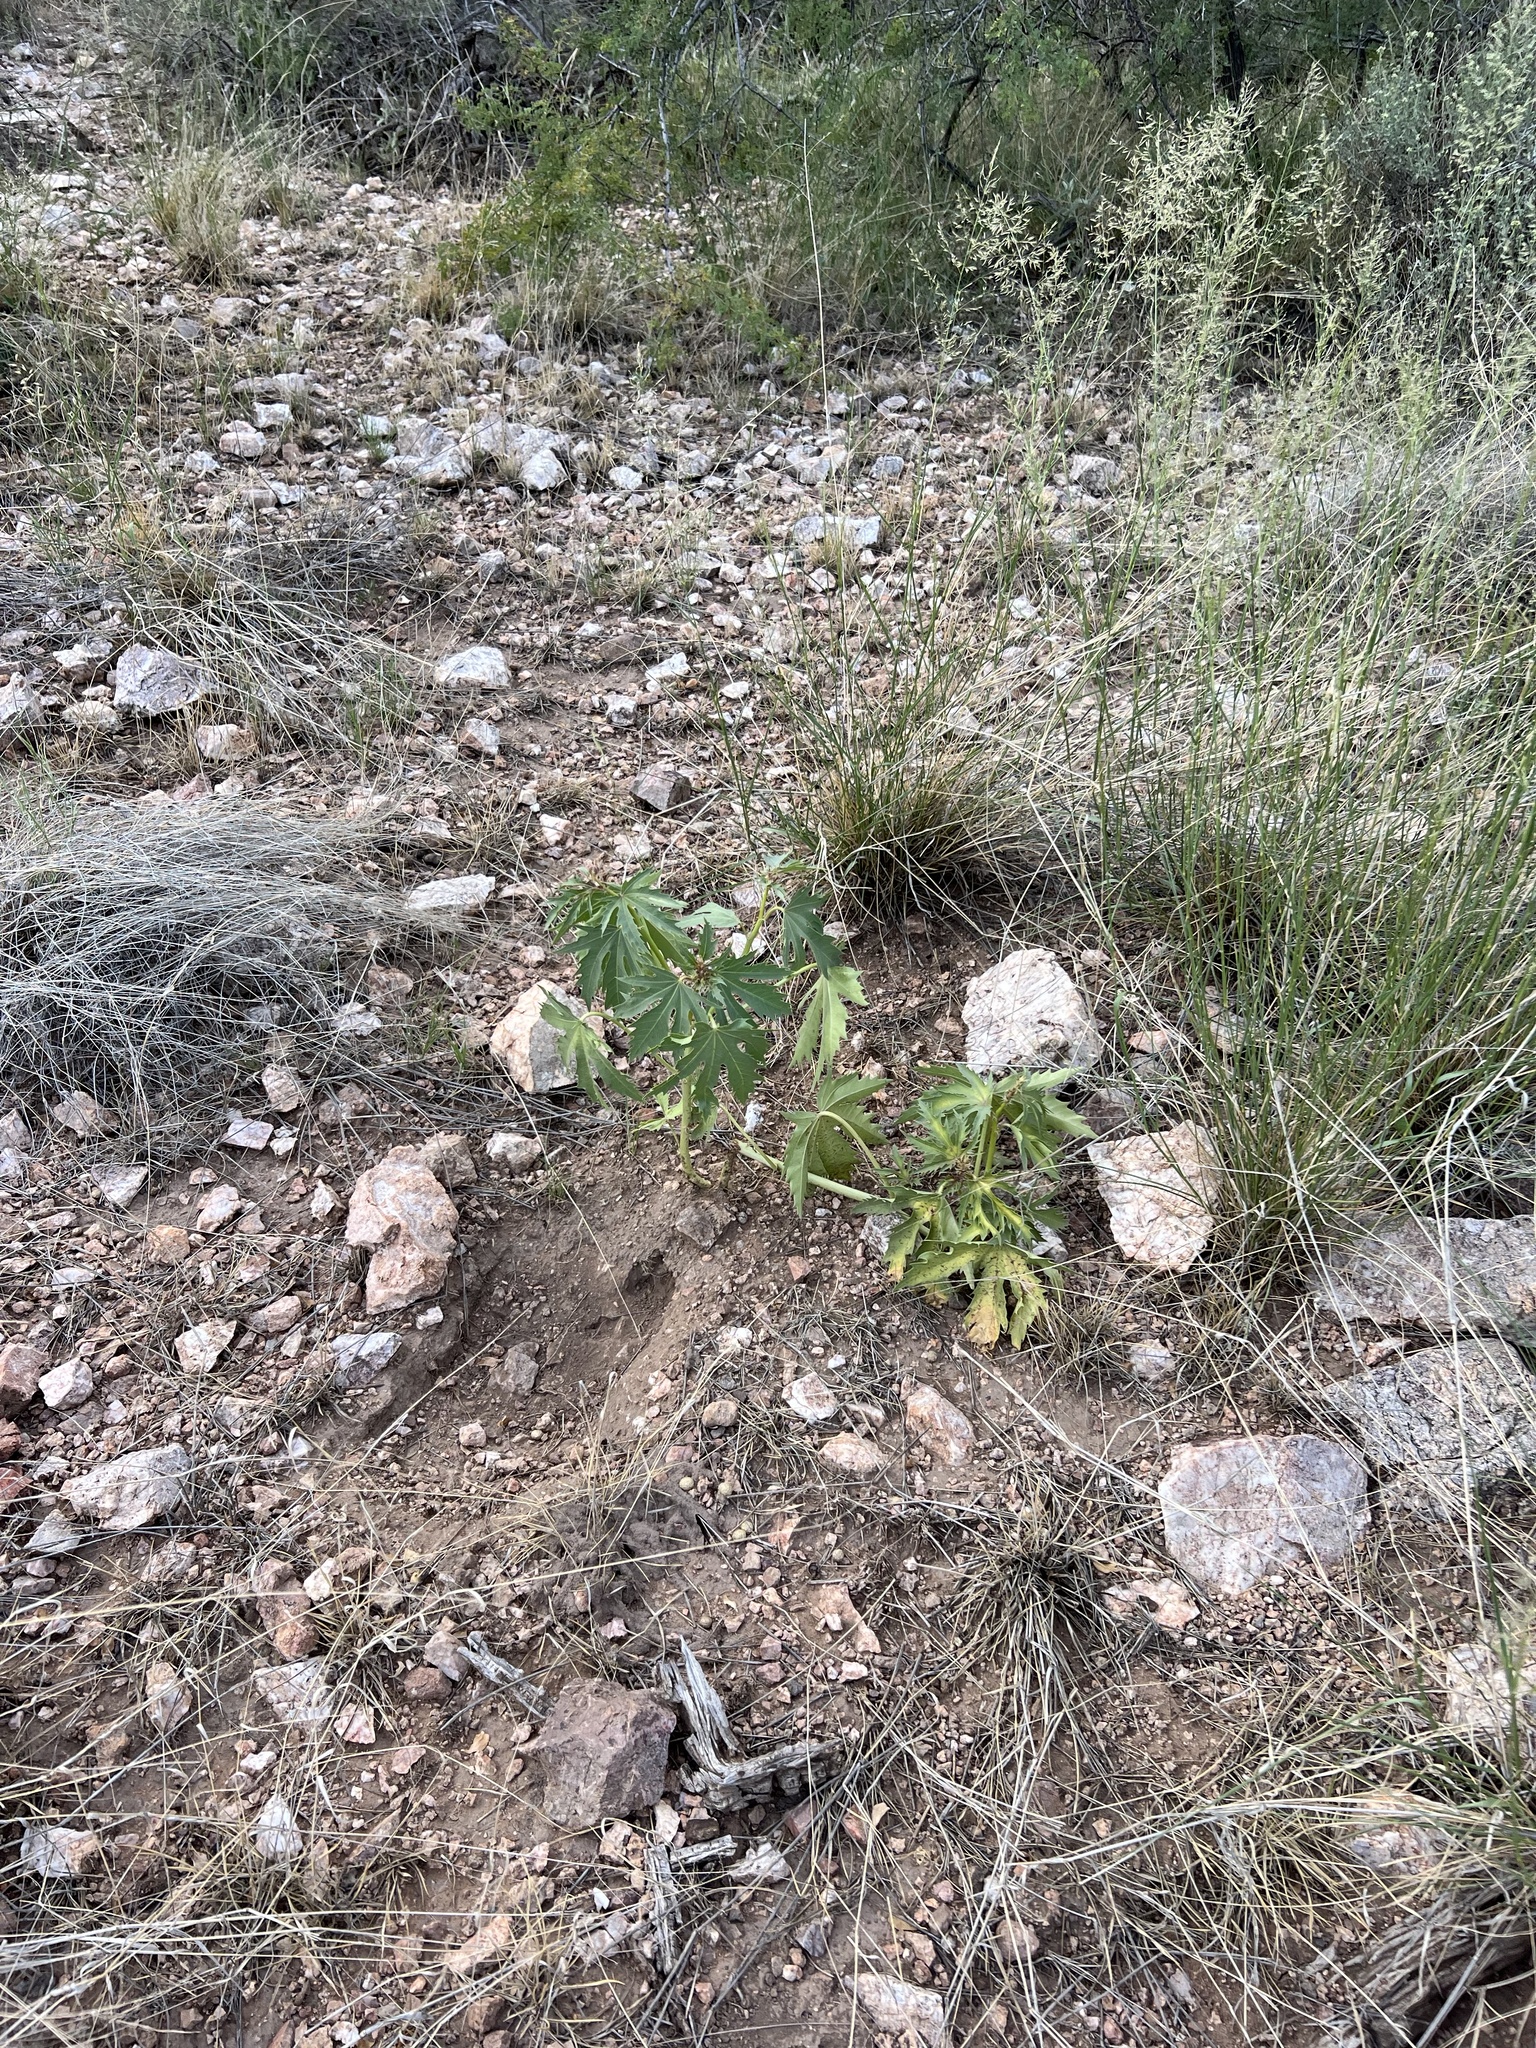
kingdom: Plantae
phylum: Tracheophyta
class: Magnoliopsida
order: Malpighiales
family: Euphorbiaceae
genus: Jatropha
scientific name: Jatropha macrorhiza
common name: Ragged nettlespurge
